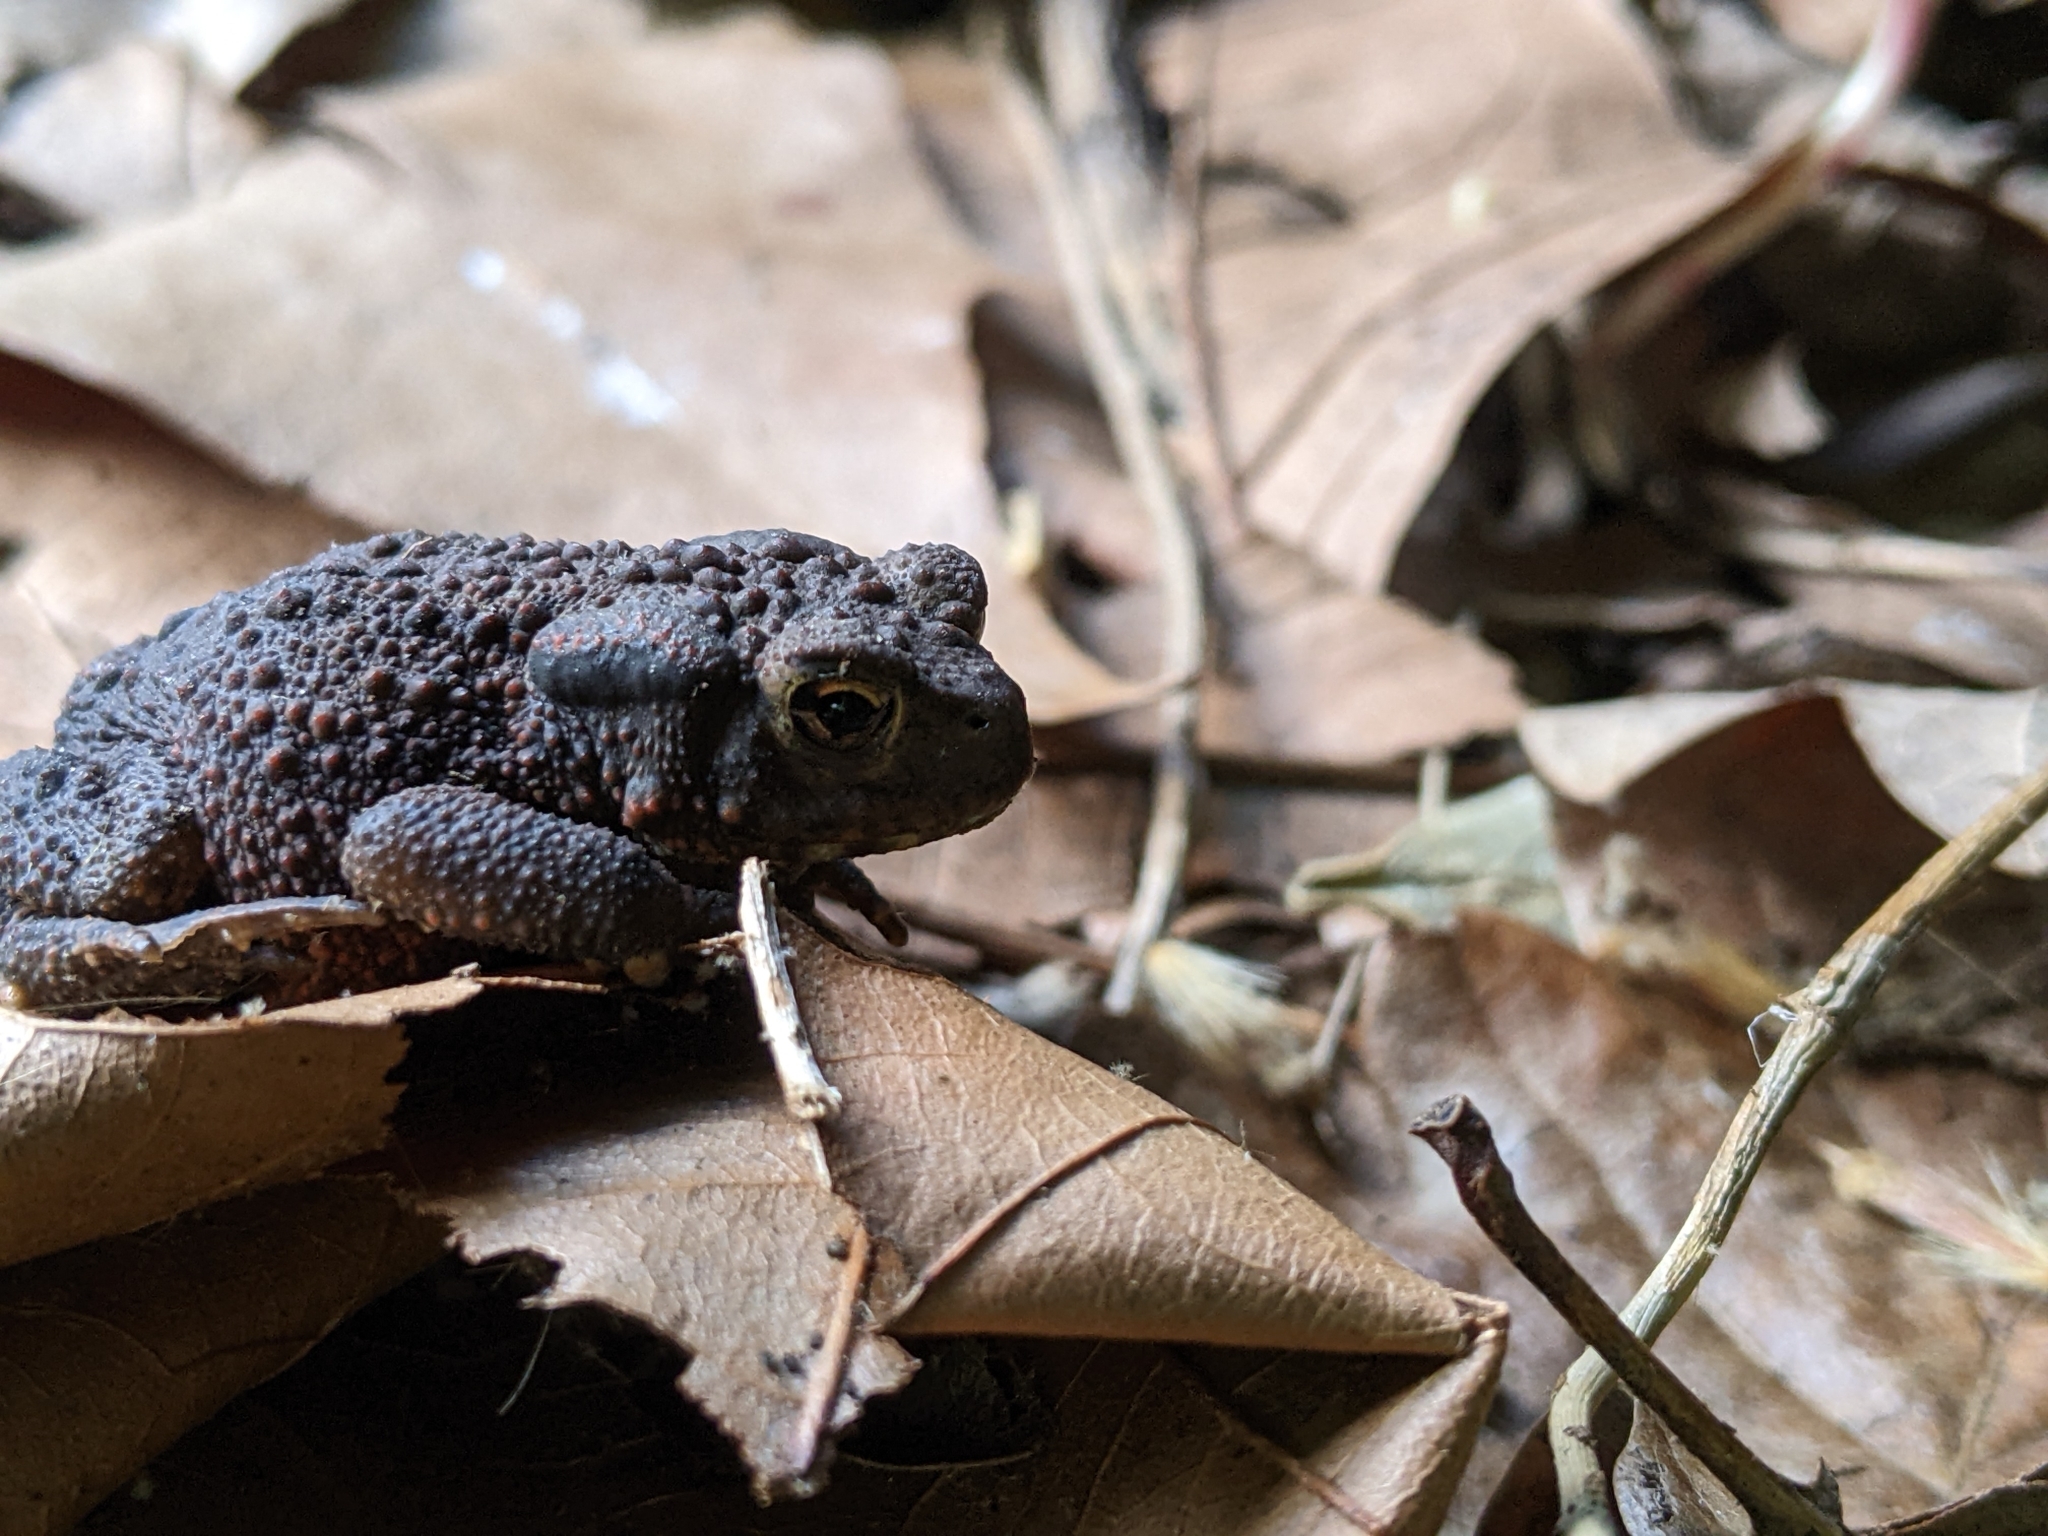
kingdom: Animalia
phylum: Chordata
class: Amphibia
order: Anura
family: Bufonidae
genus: Bufo
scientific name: Bufo bufo
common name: Common toad
